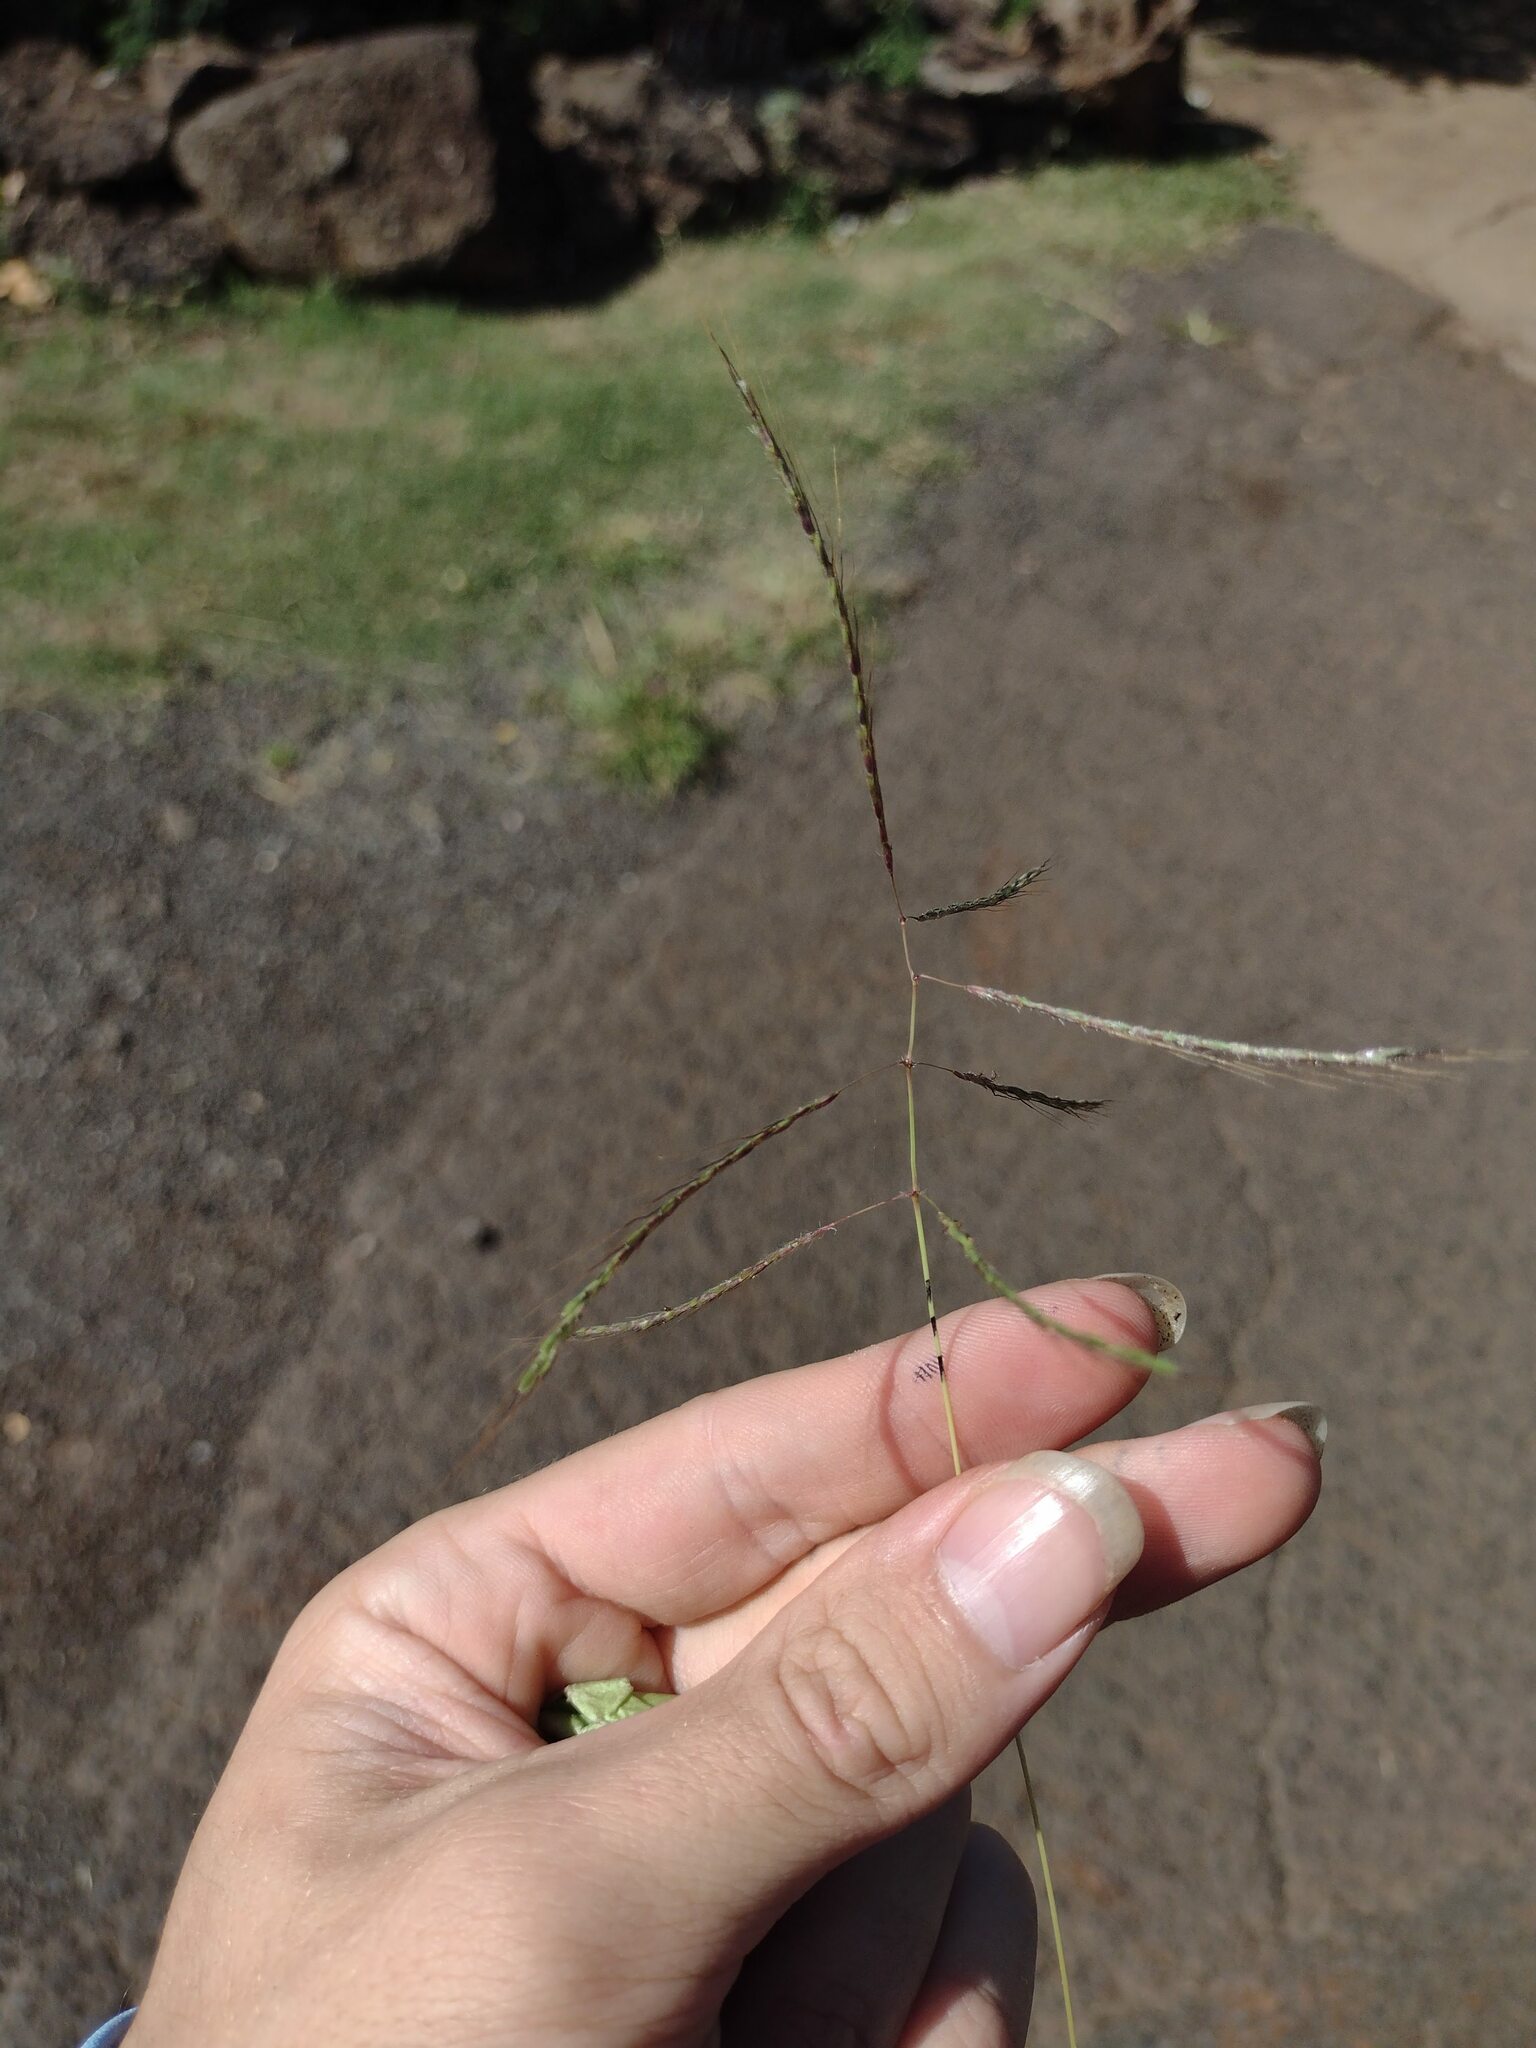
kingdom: Plantae
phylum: Tracheophyta
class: Liliopsida
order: Poales
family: Poaceae
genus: Dichanthium
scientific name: Dichanthium annulatum
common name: Kleberg's bluestem
